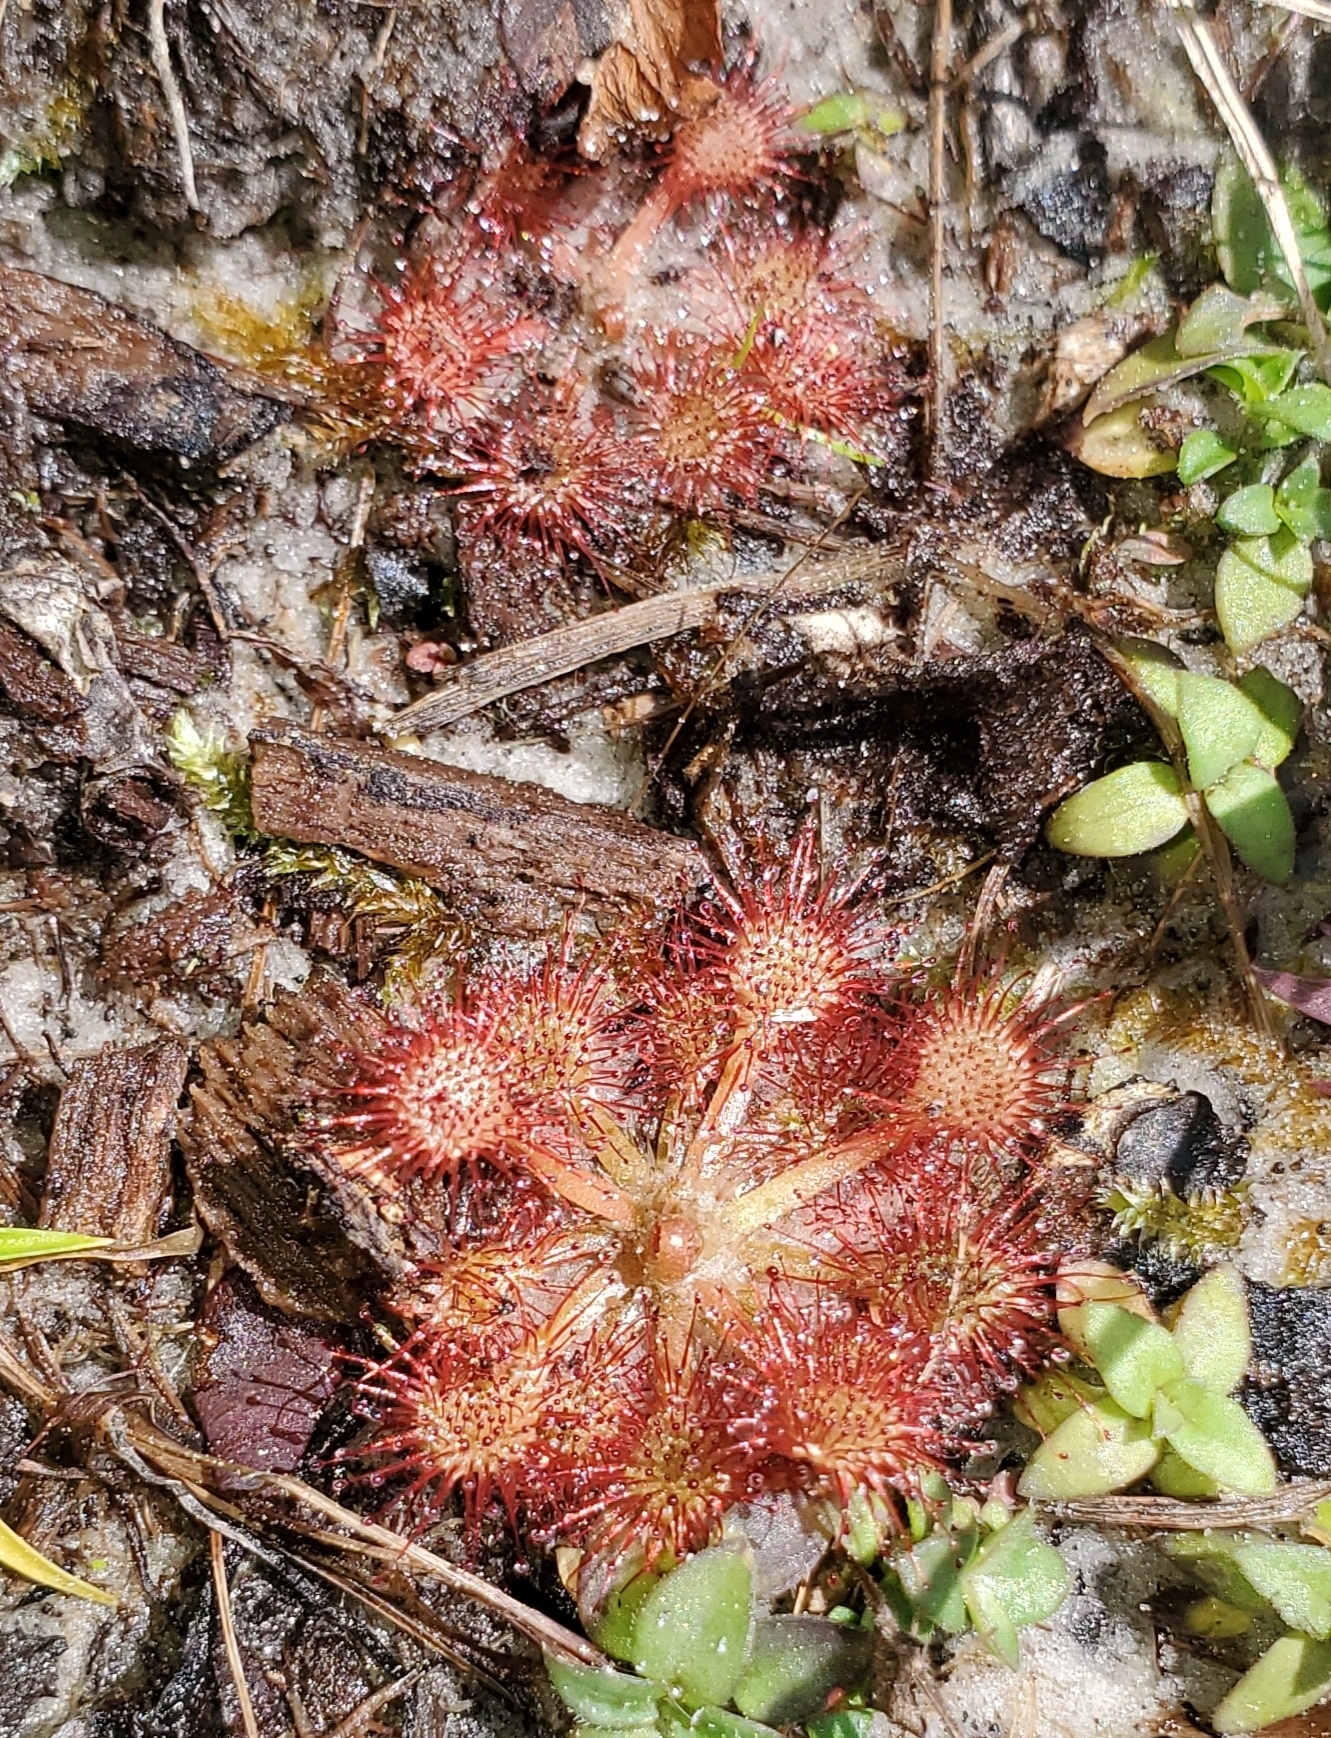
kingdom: Plantae
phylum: Tracheophyta
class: Magnoliopsida
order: Caryophyllales
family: Droseraceae
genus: Drosera
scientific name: Drosera capillaris
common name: Pink sundew
